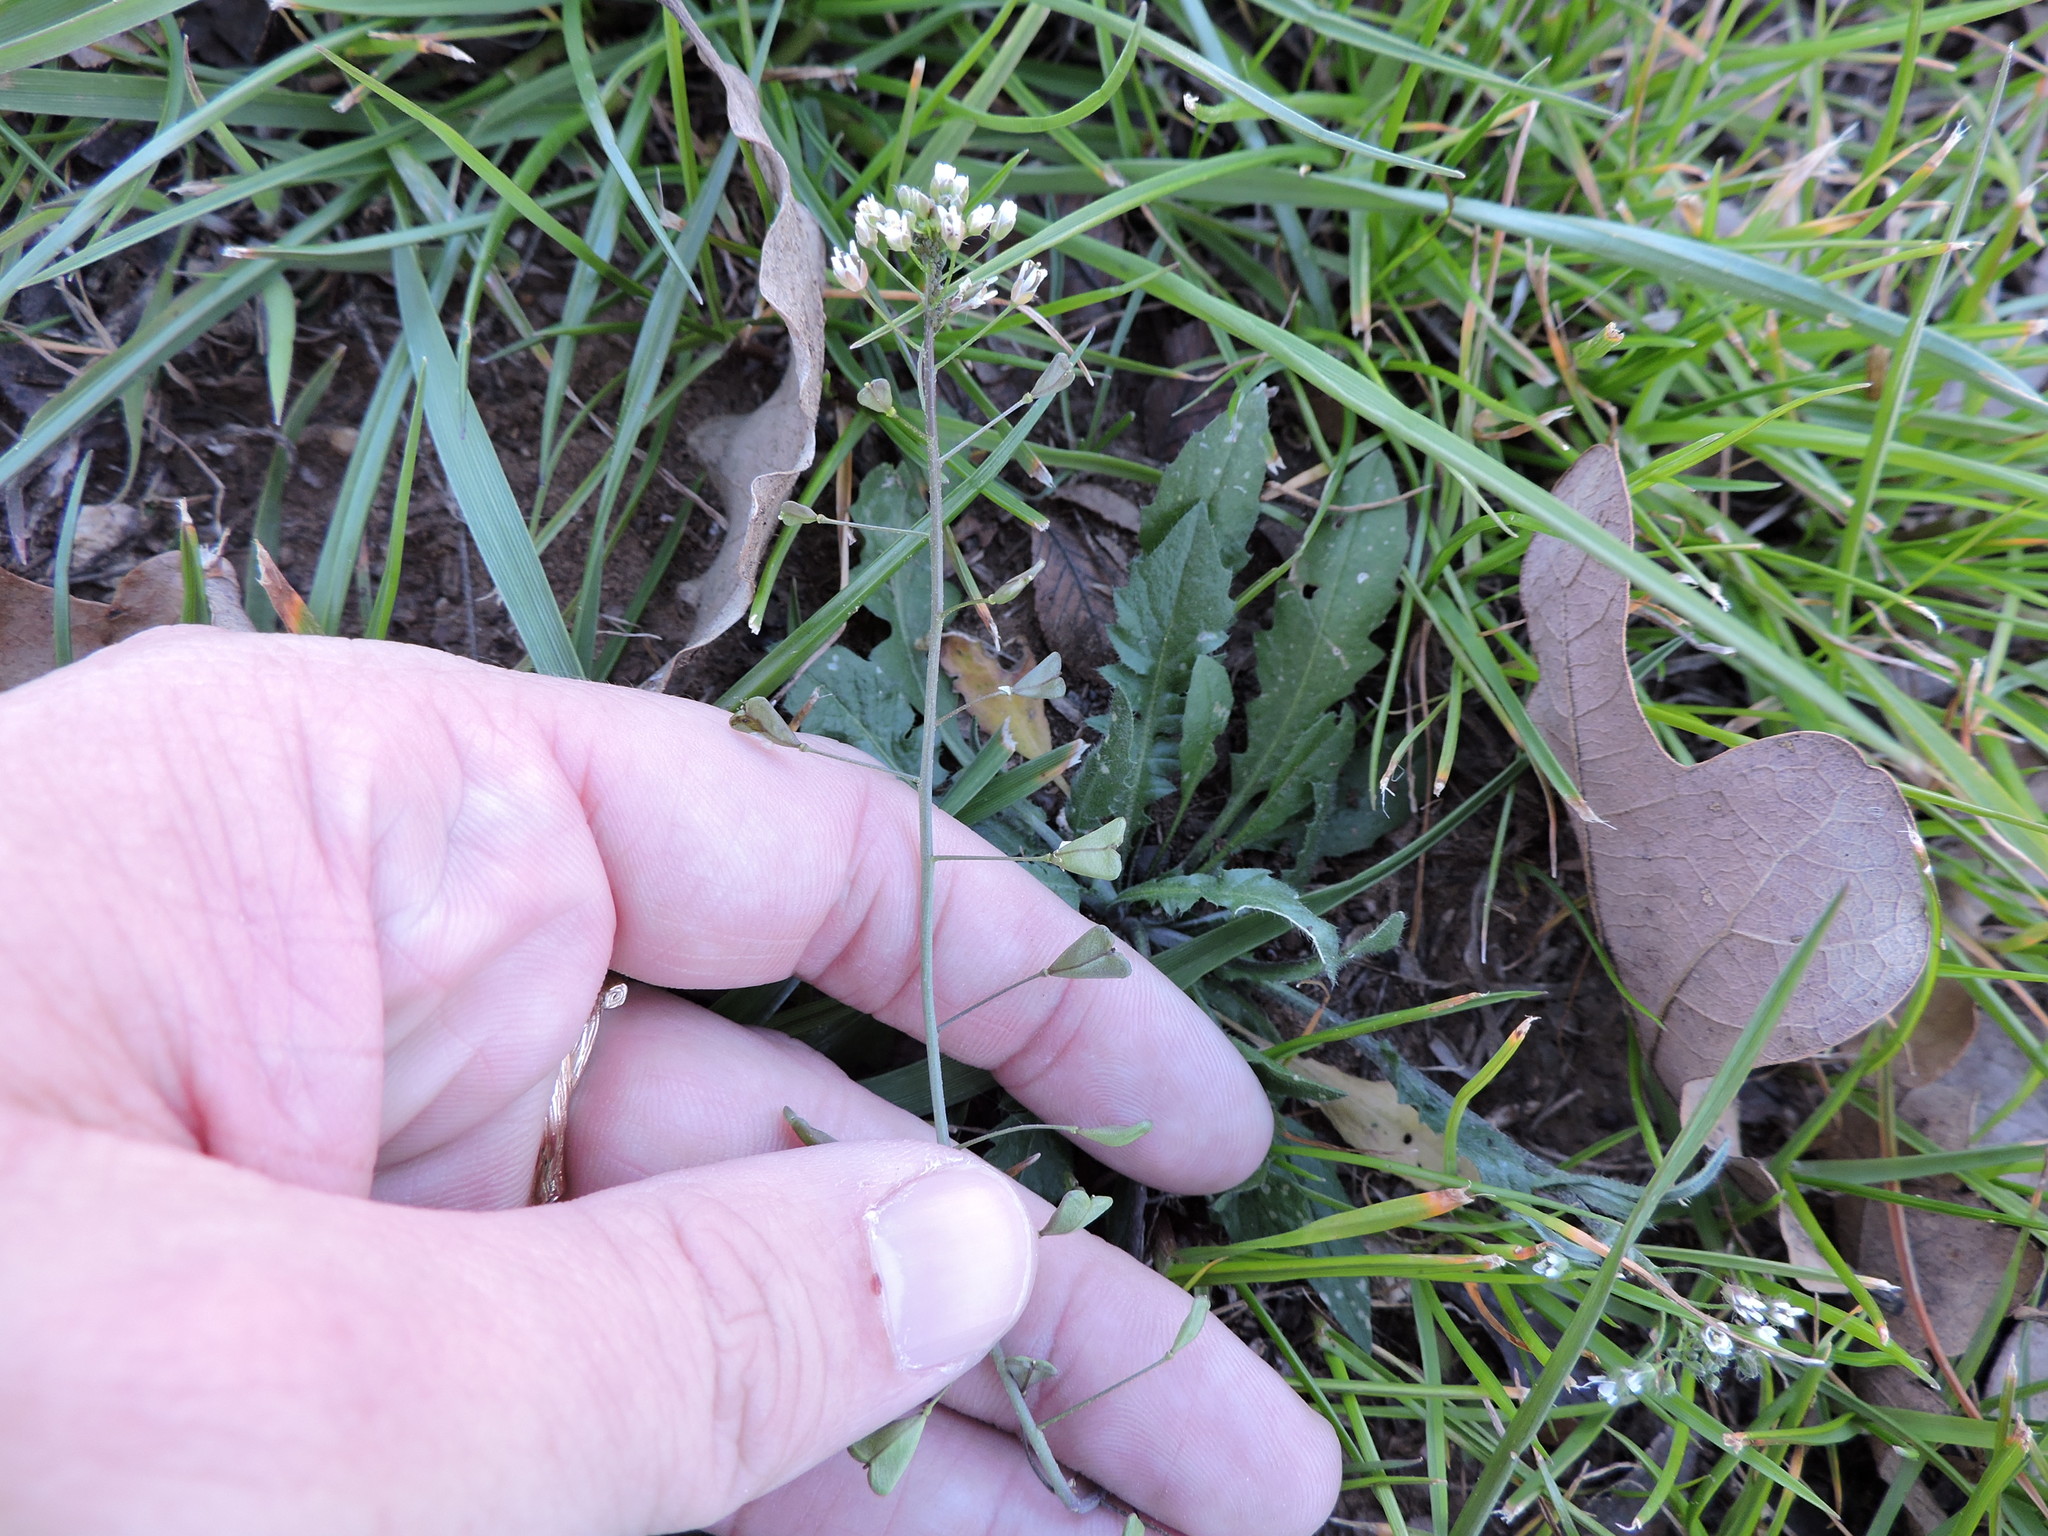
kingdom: Plantae
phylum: Tracheophyta
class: Magnoliopsida
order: Brassicales
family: Brassicaceae
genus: Capsella
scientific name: Capsella bursa-pastoris
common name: Shepherd's purse
